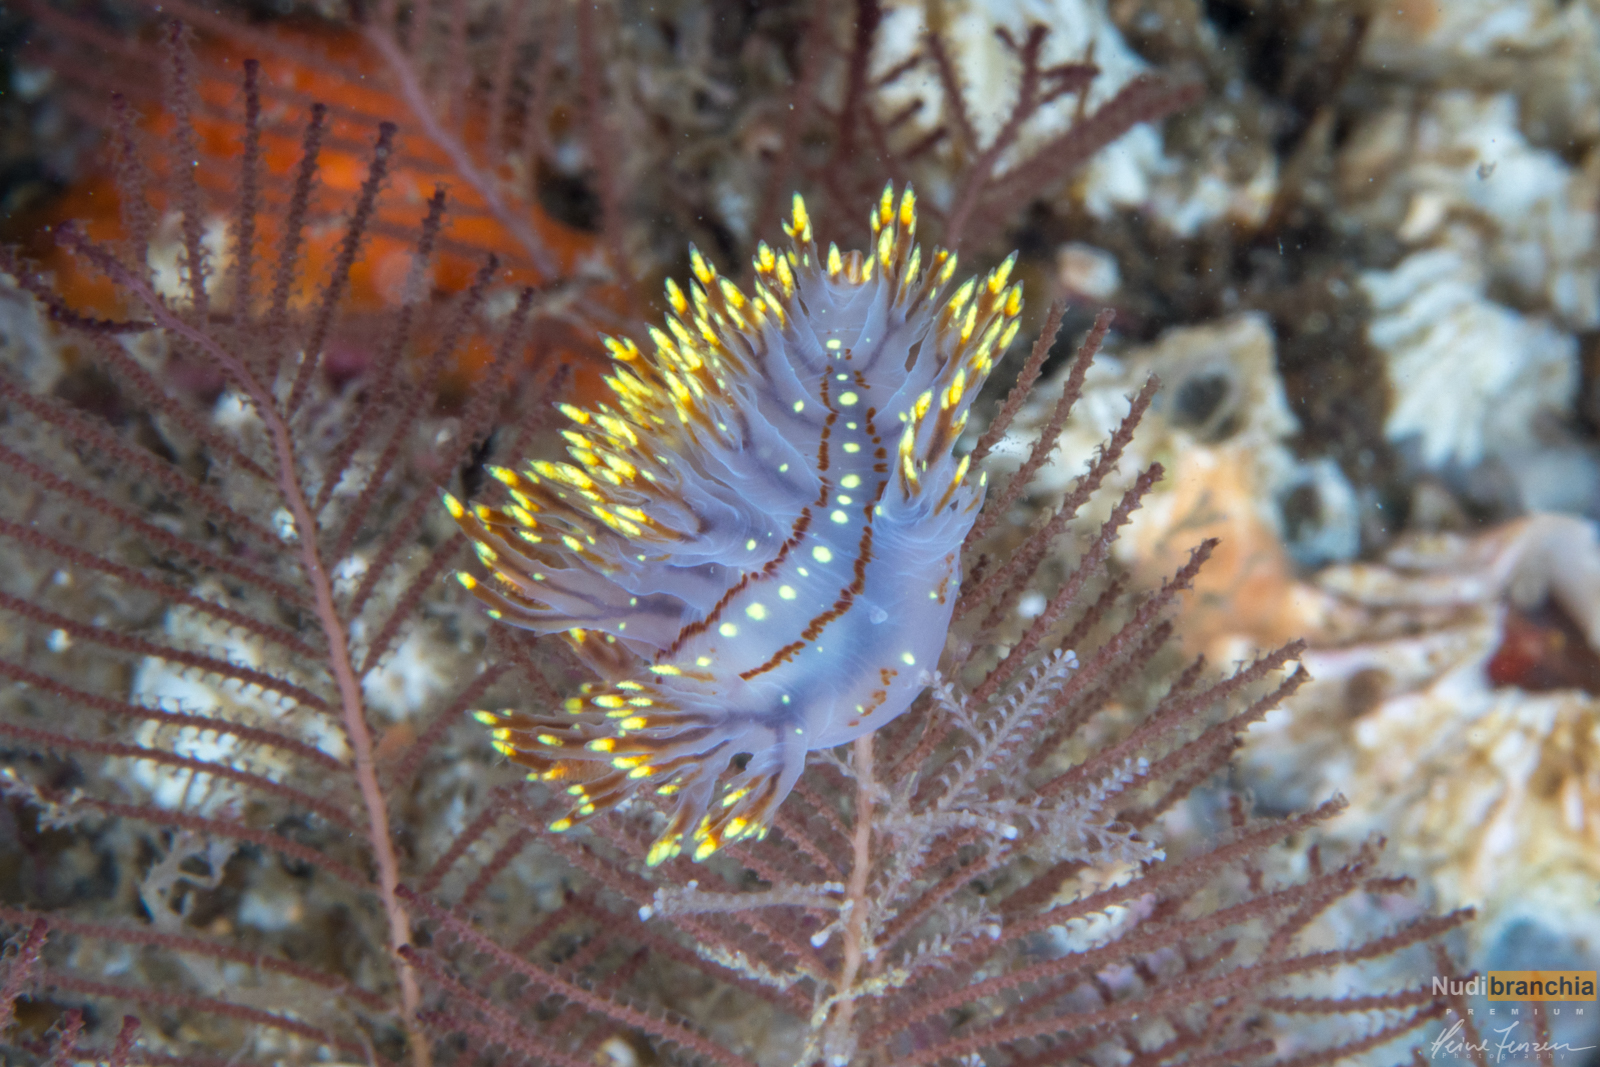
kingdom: Animalia
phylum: Mollusca
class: Gastropoda
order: Nudibranchia
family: Dendronotidae
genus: Dendronotus
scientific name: Dendronotus yrjargul
